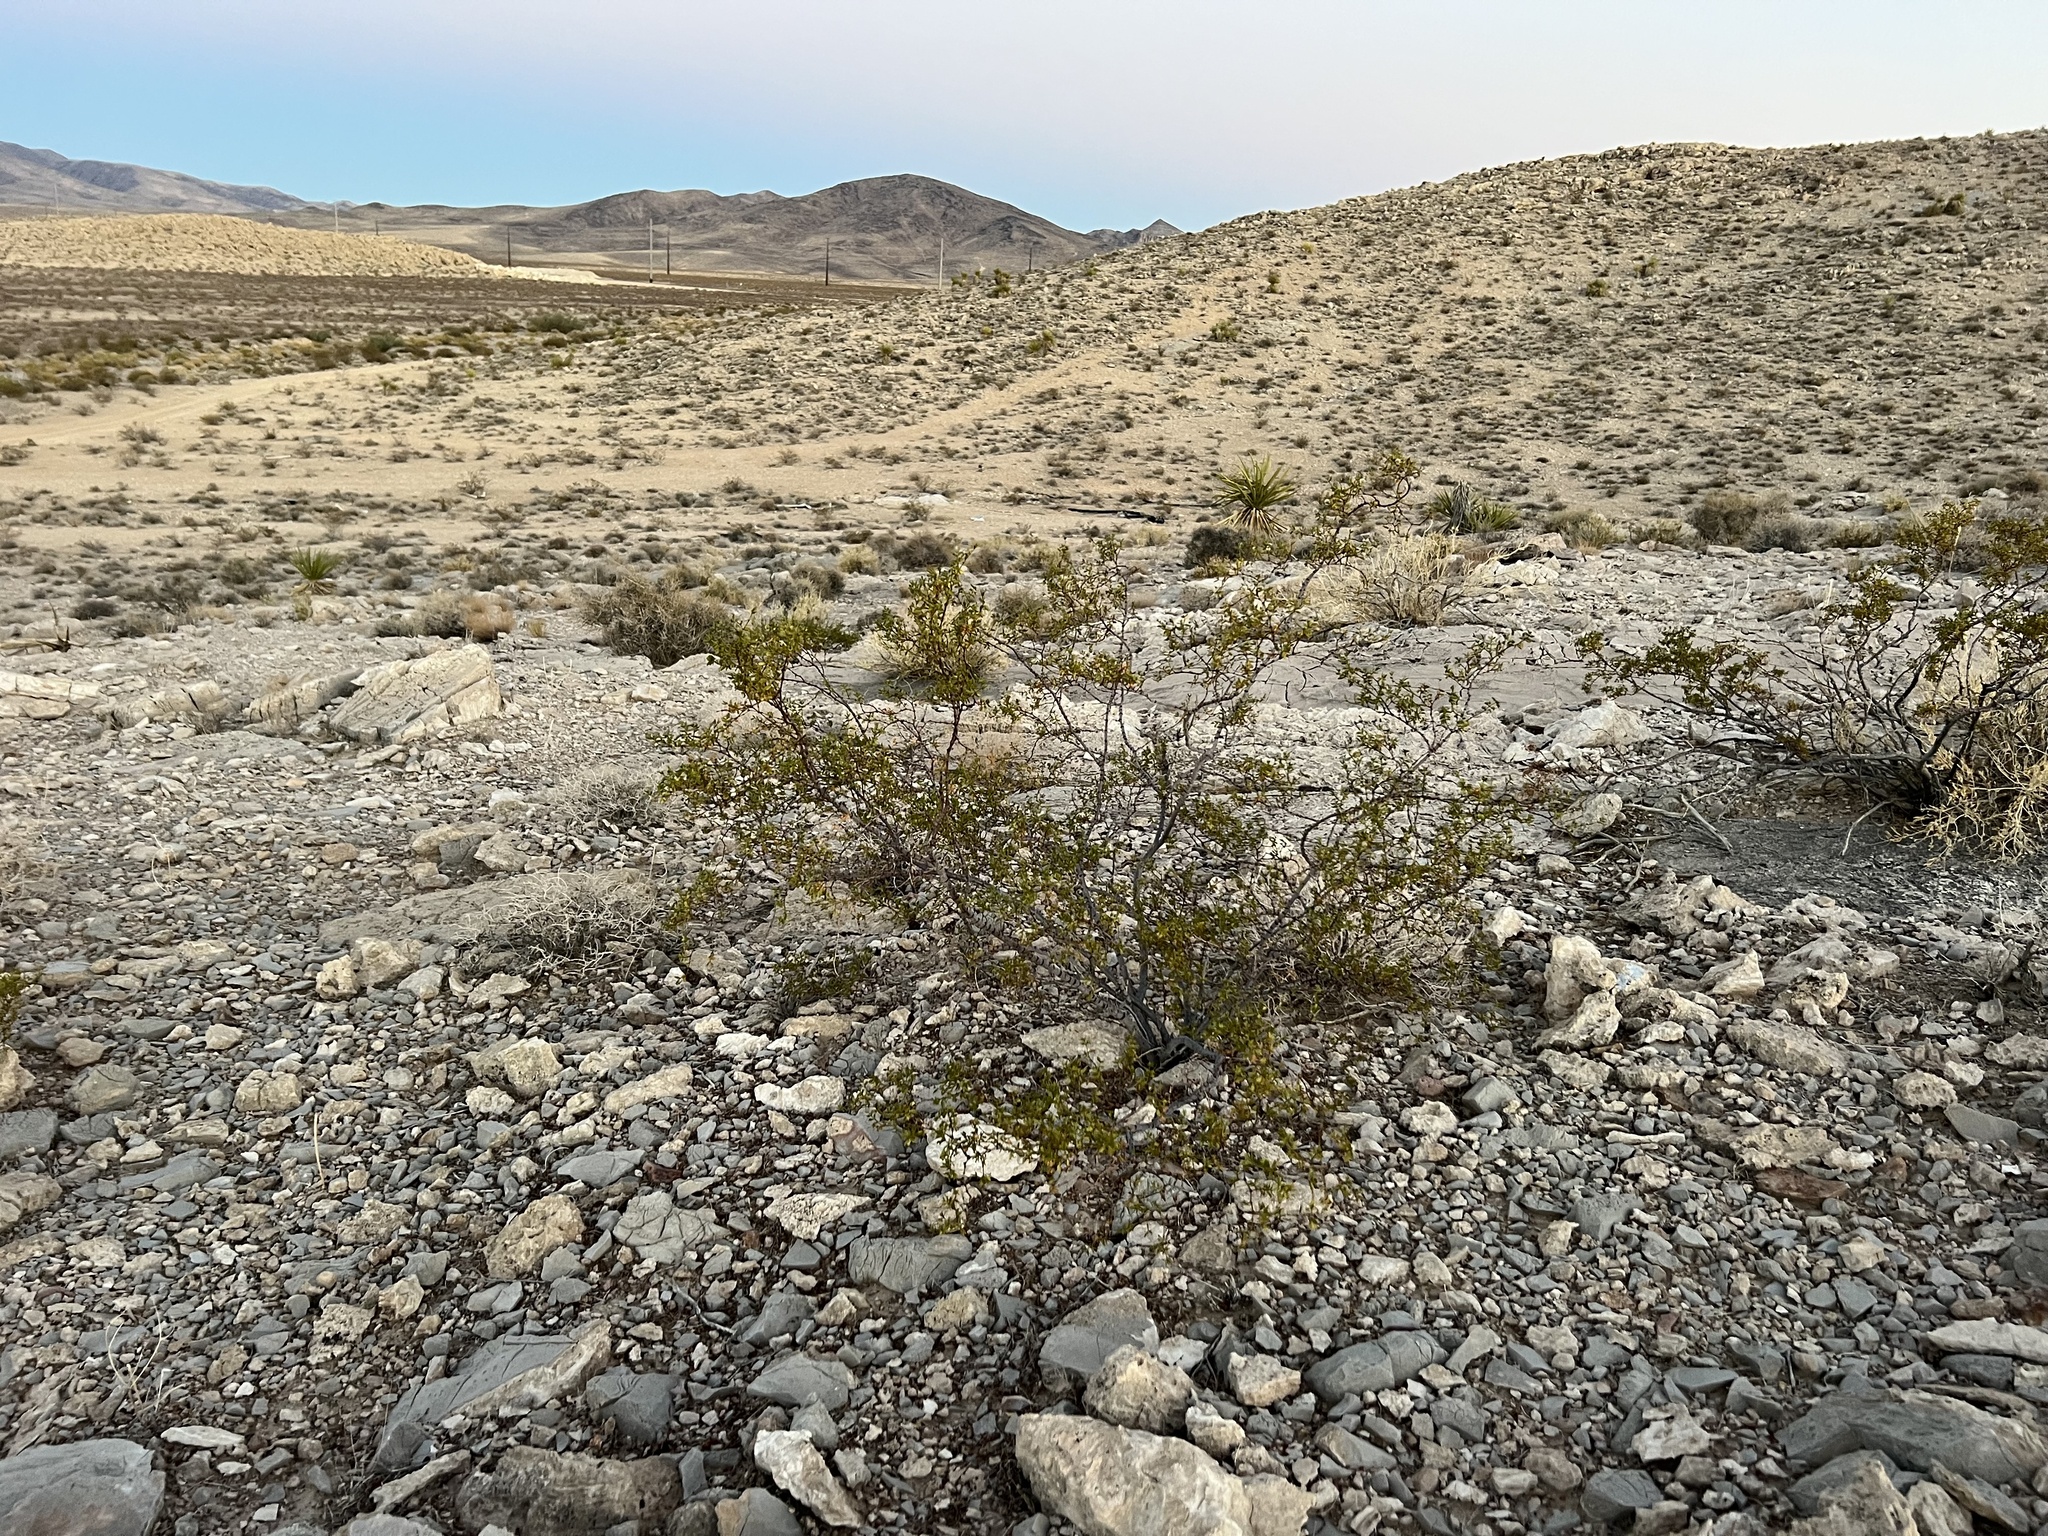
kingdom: Plantae
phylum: Tracheophyta
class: Magnoliopsida
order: Zygophyllales
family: Zygophyllaceae
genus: Larrea
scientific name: Larrea tridentata
